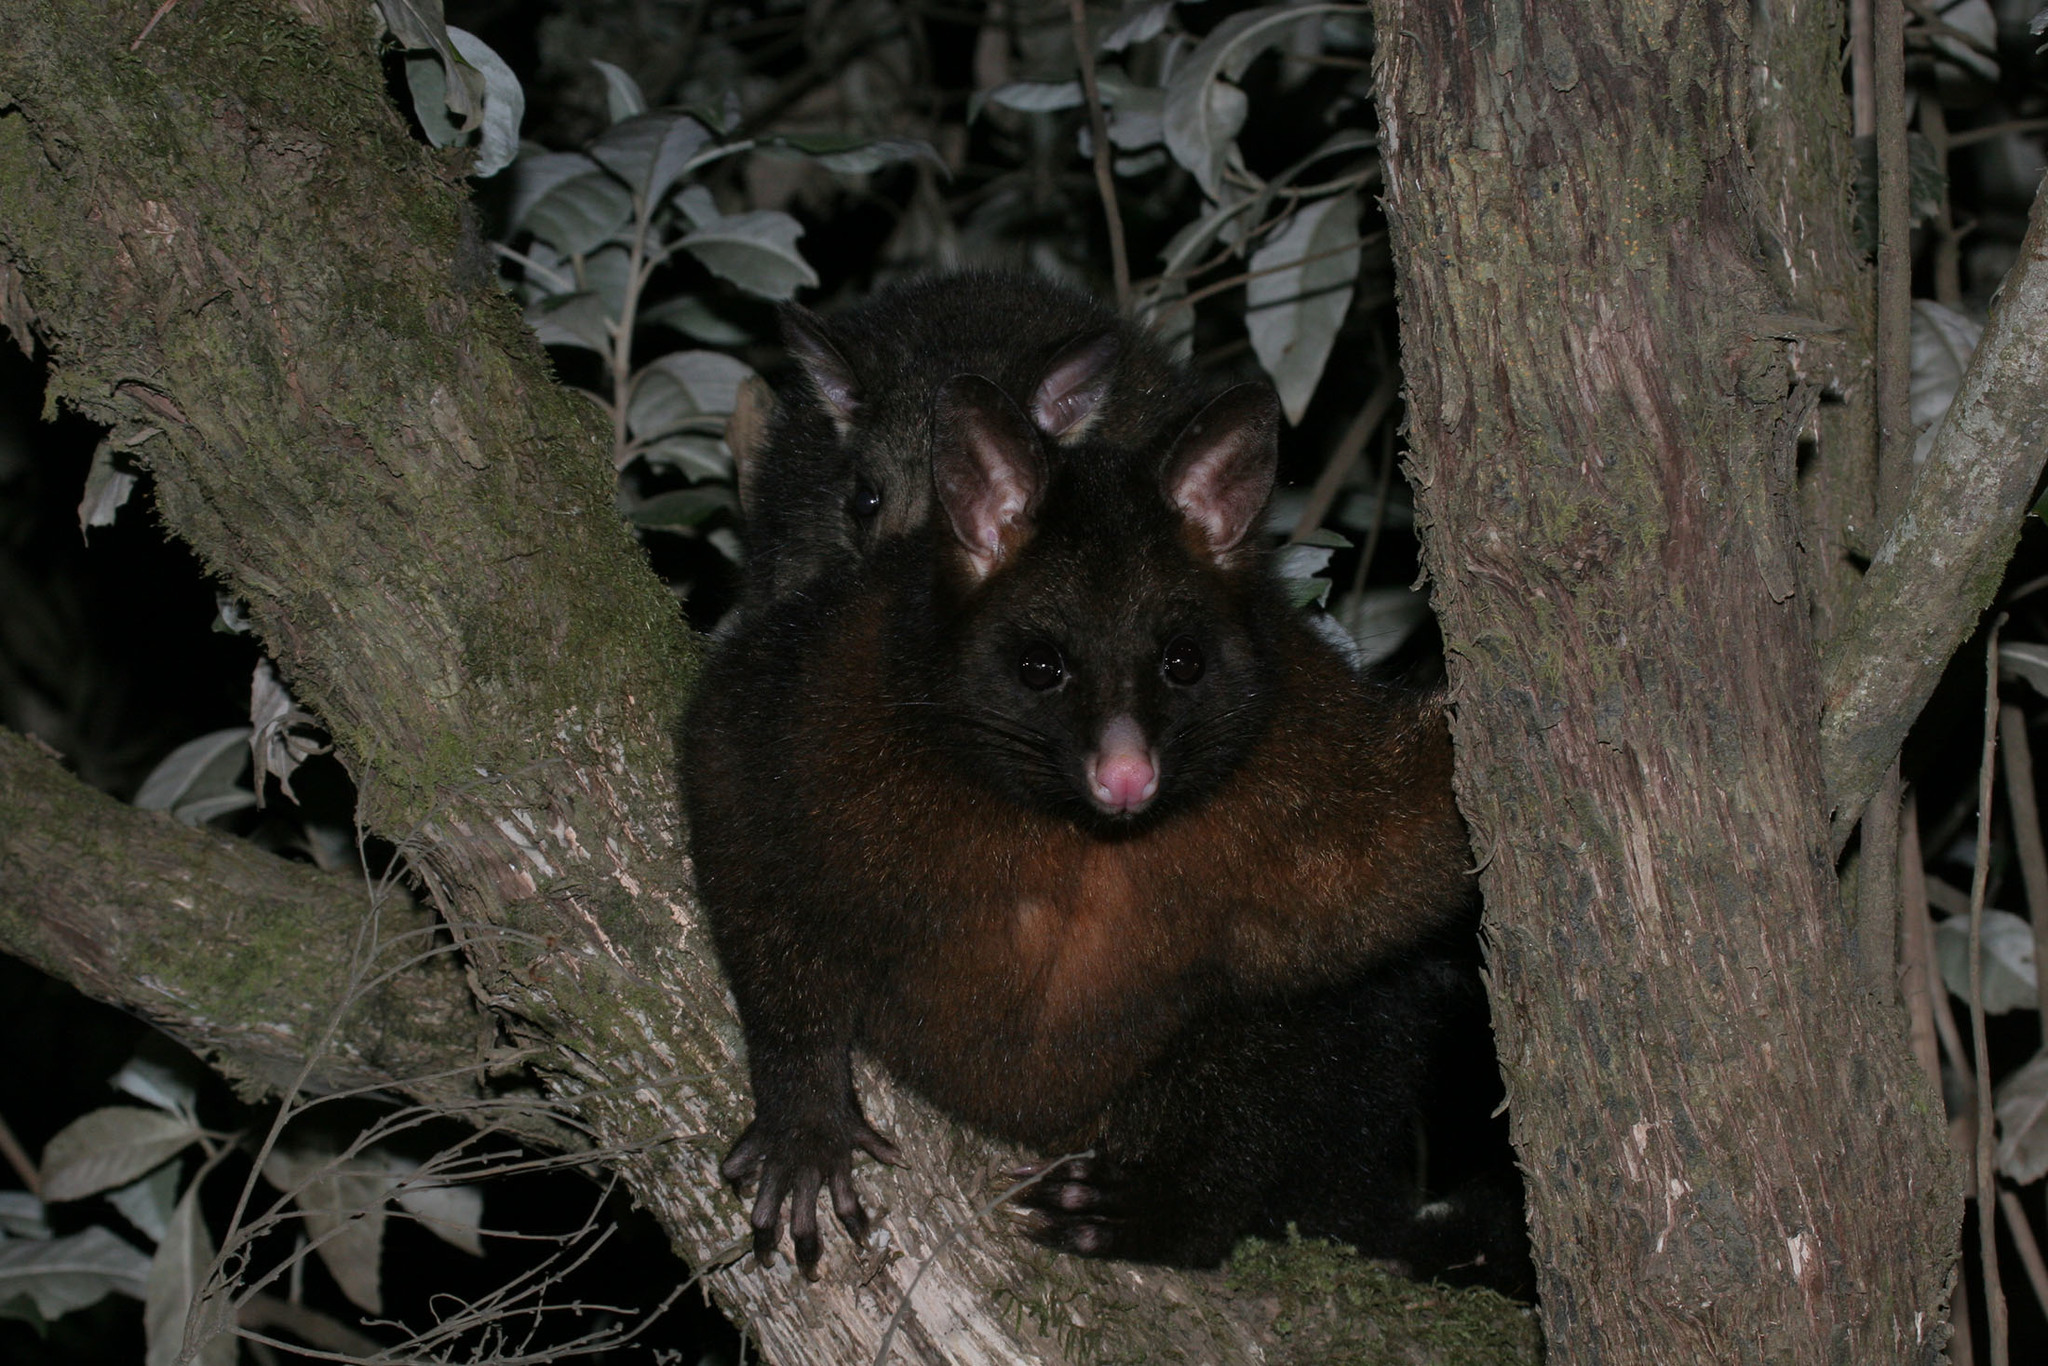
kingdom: Animalia
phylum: Chordata
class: Mammalia
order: Diprotodontia
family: Phalangeridae
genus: Trichosurus
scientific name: Trichosurus vulpecula
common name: Common brushtail
